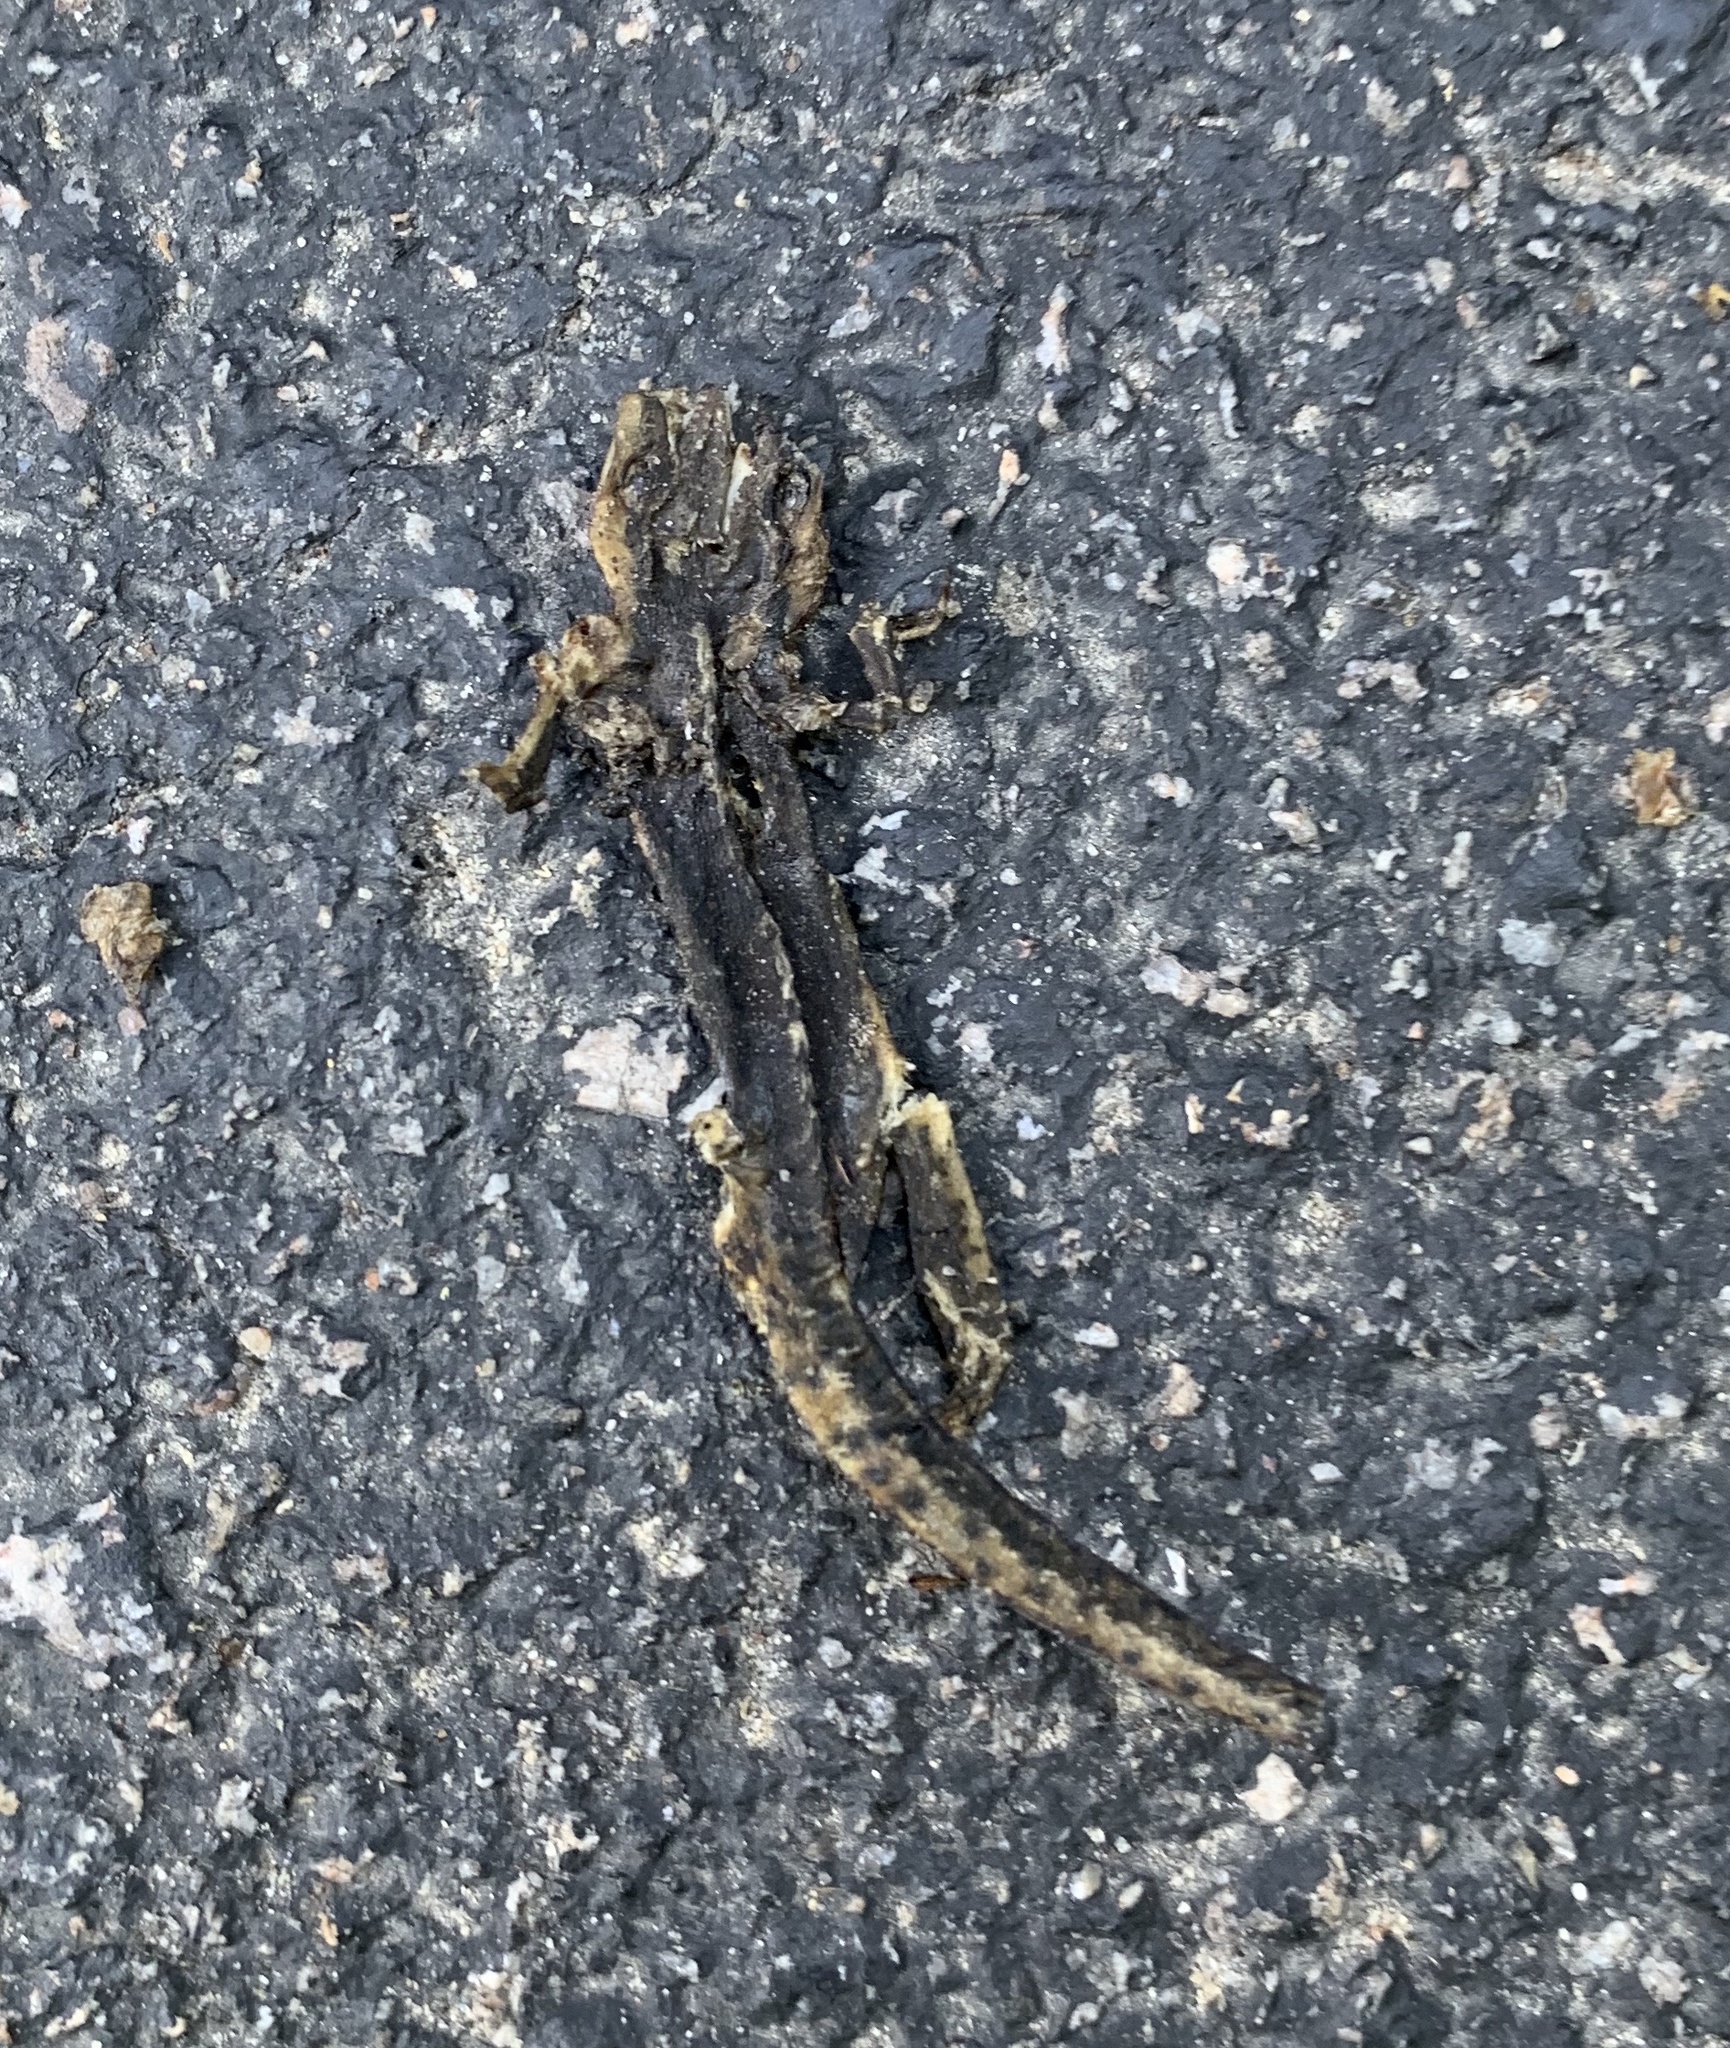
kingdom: Animalia
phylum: Chordata
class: Amphibia
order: Caudata
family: Salamandridae
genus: Notophthalmus
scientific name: Notophthalmus viridescens
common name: Eastern newt
